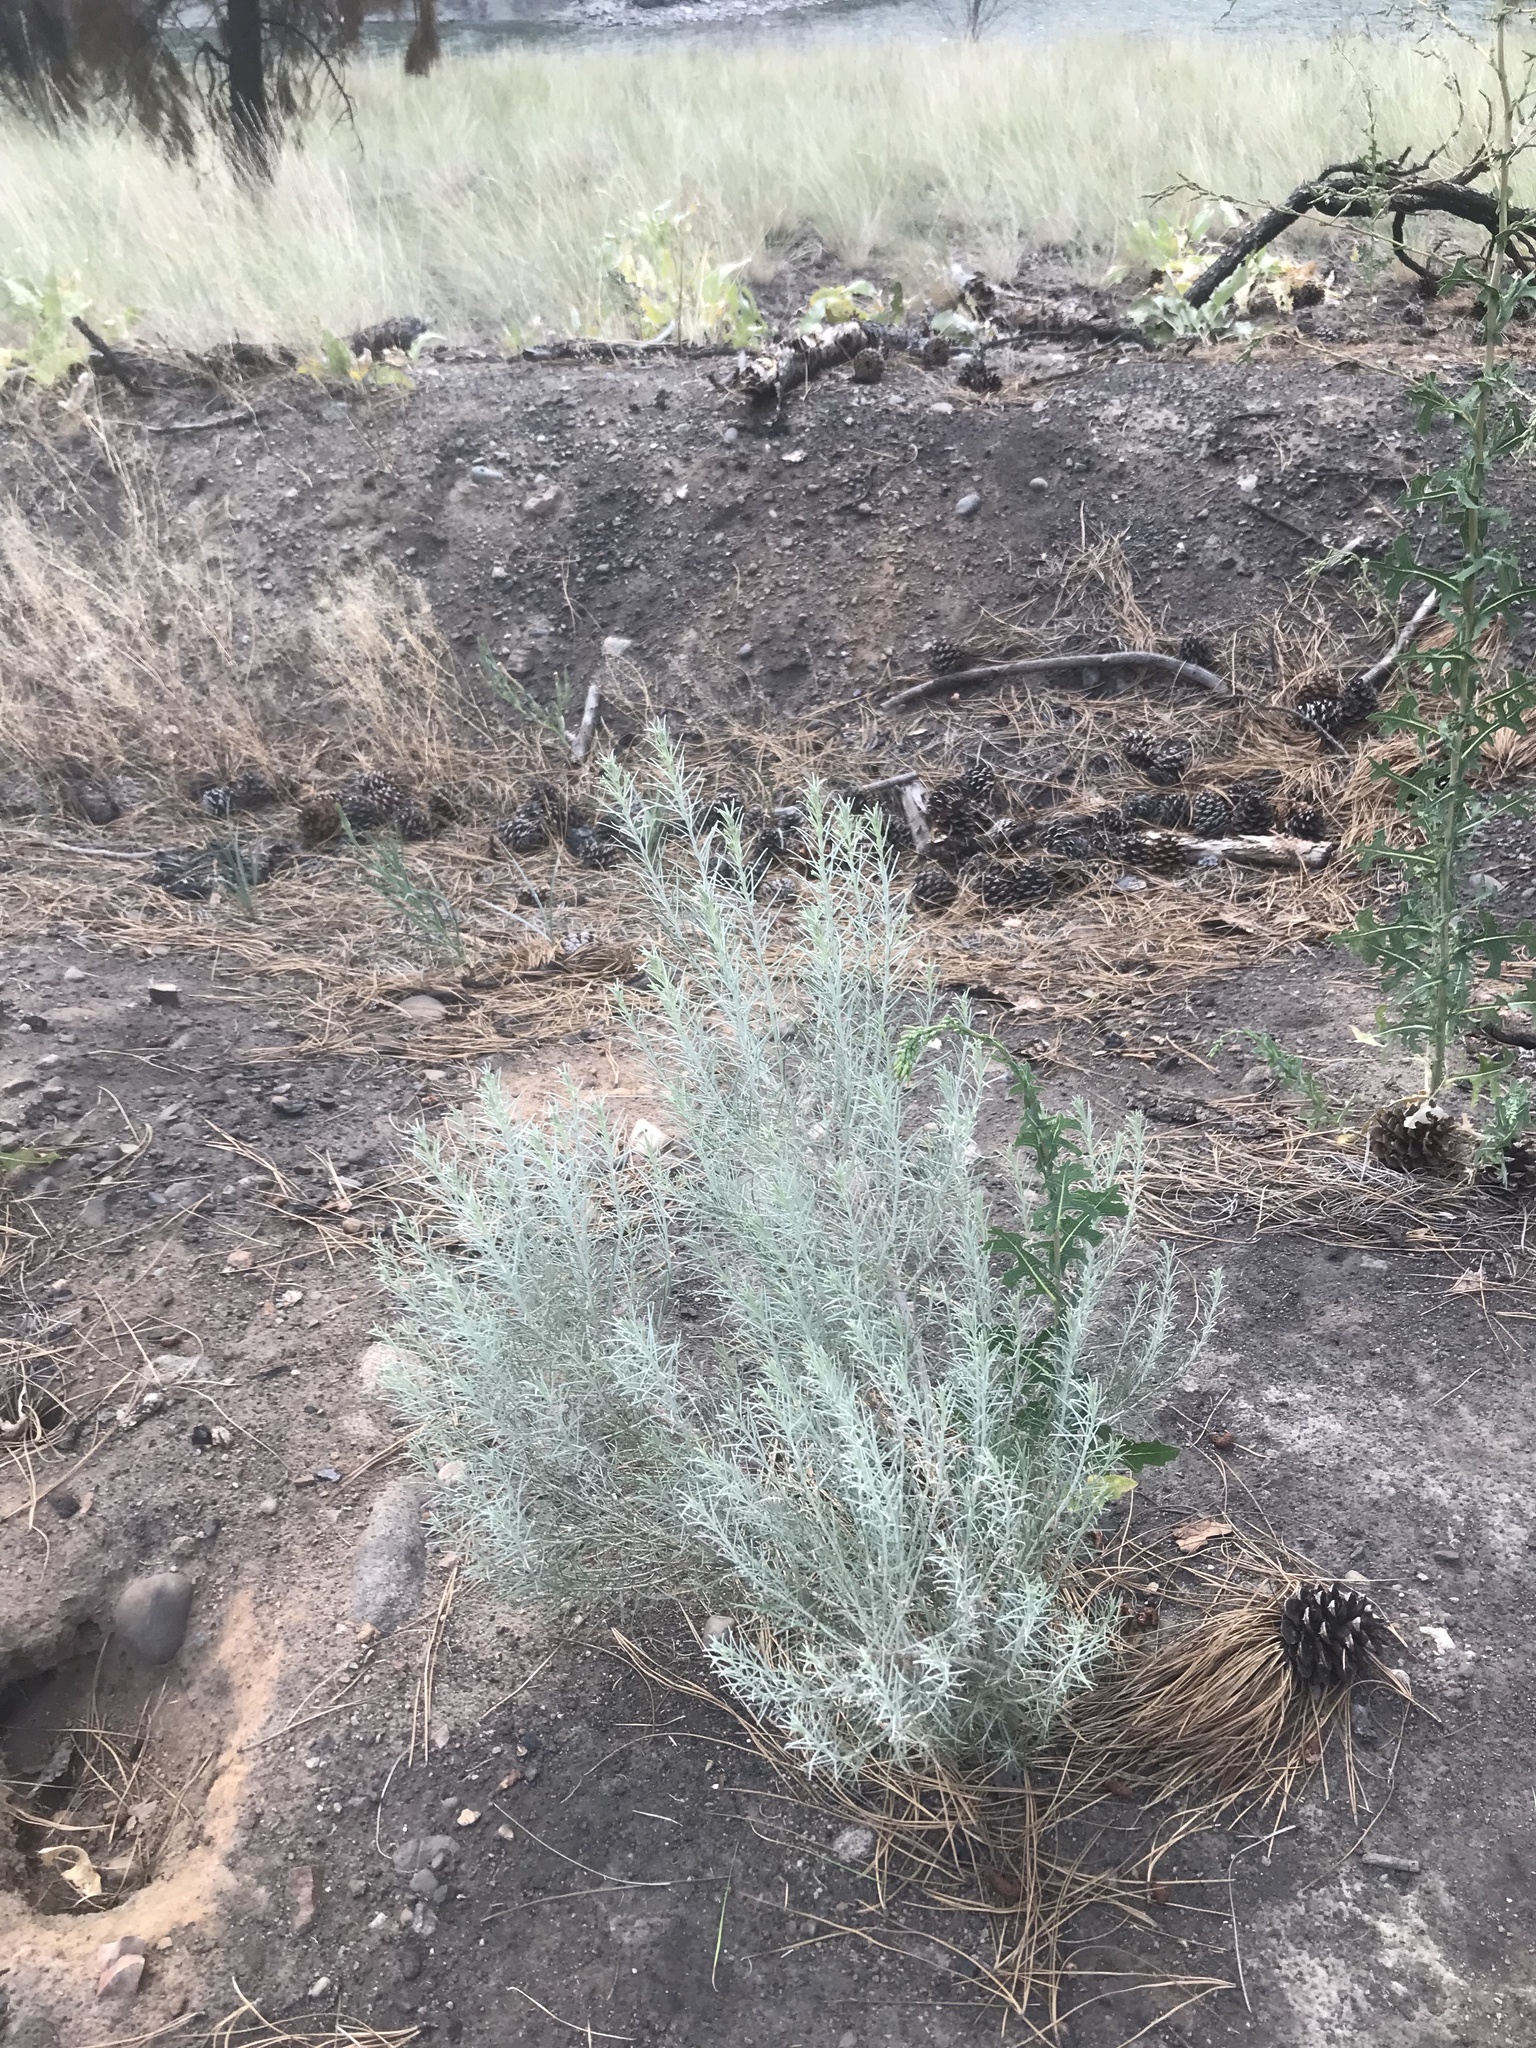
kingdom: Plantae
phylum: Tracheophyta
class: Magnoliopsida
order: Asterales
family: Asteraceae
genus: Ericameria
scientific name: Ericameria nauseosa
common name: Rubber rabbitbrush
